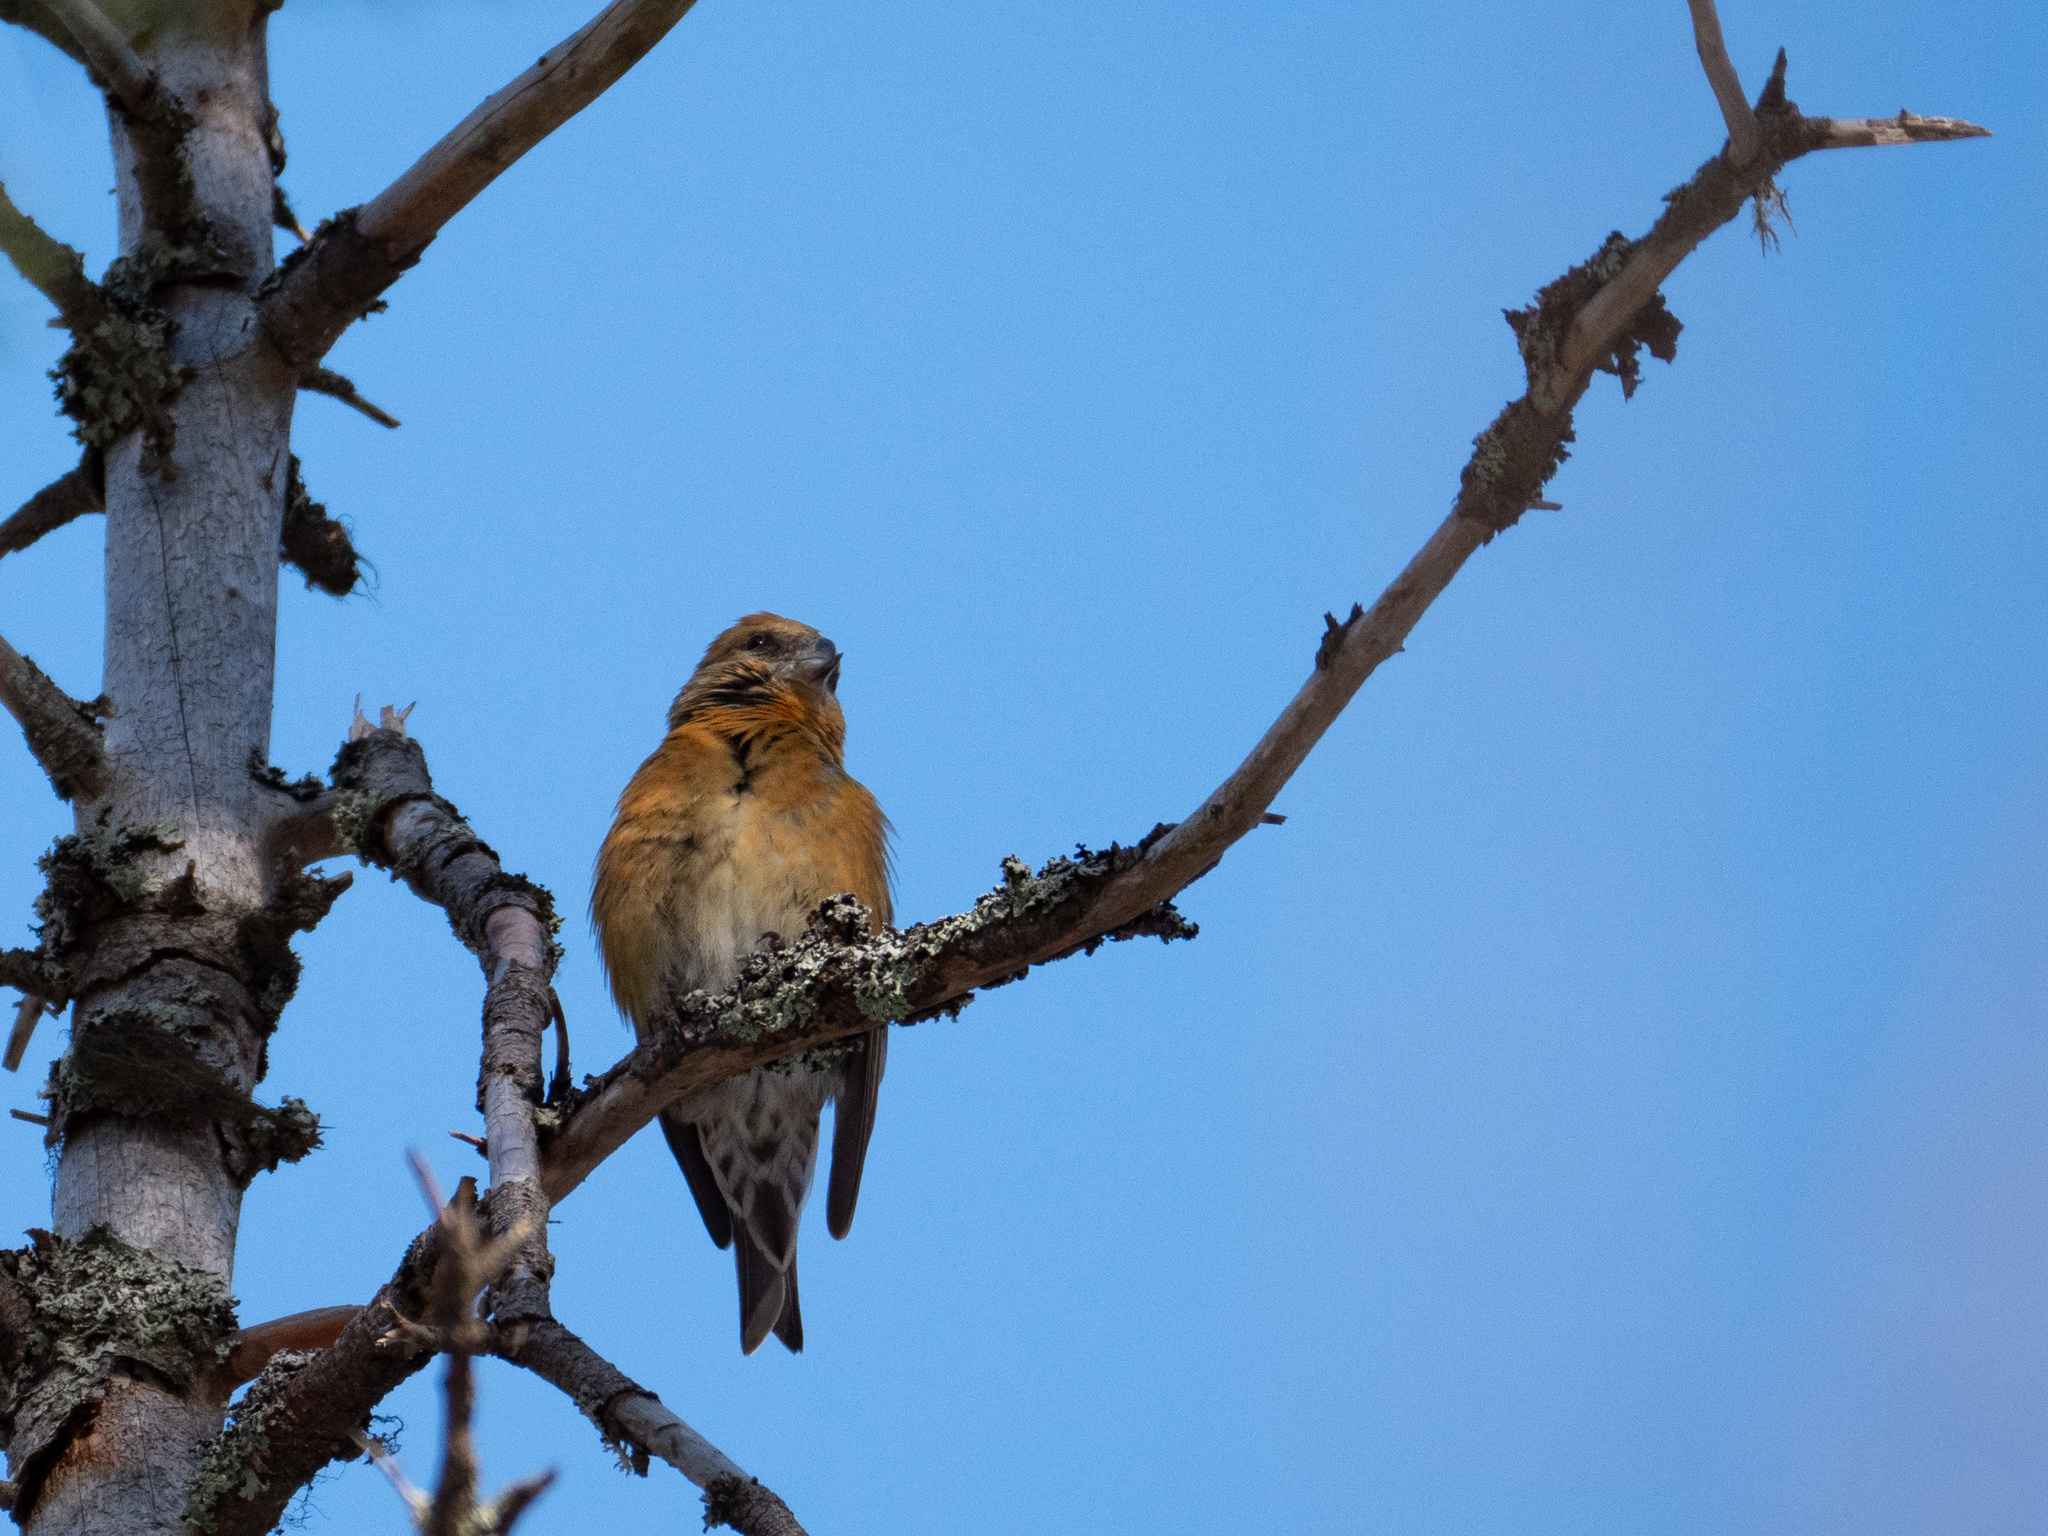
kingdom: Animalia
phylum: Chordata
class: Aves
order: Passeriformes
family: Fringillidae
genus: Loxia
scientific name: Loxia curvirostra
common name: Red crossbill
